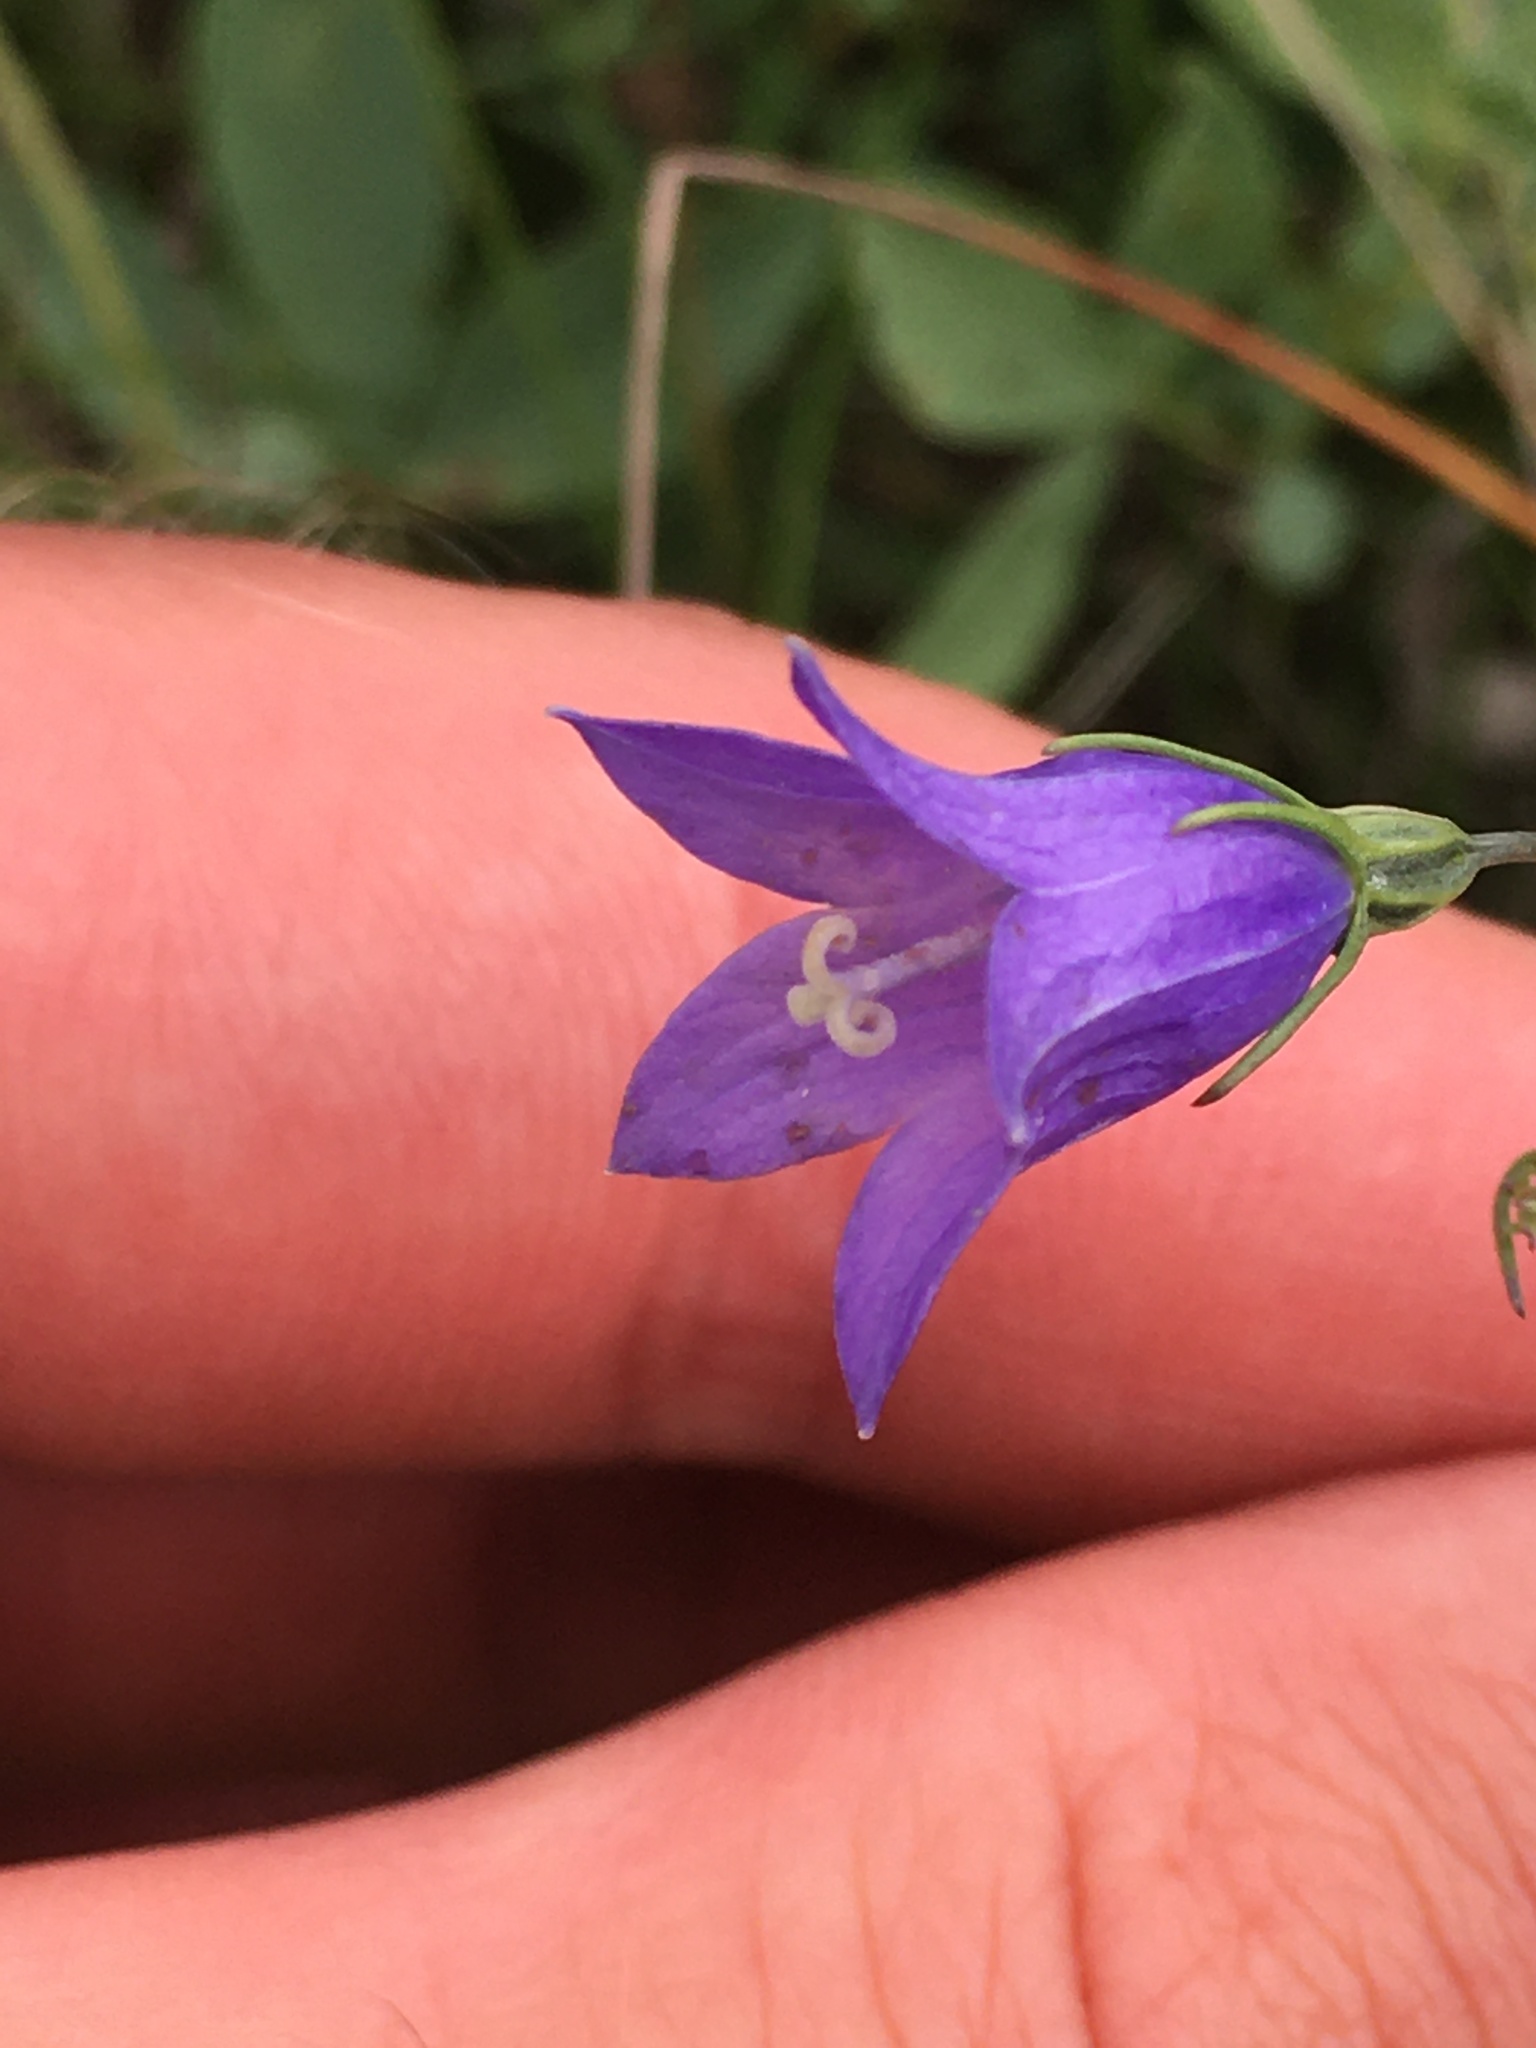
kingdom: Plantae
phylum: Tracheophyta
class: Magnoliopsida
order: Asterales
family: Campanulaceae
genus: Campanula
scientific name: Campanula alaskana
